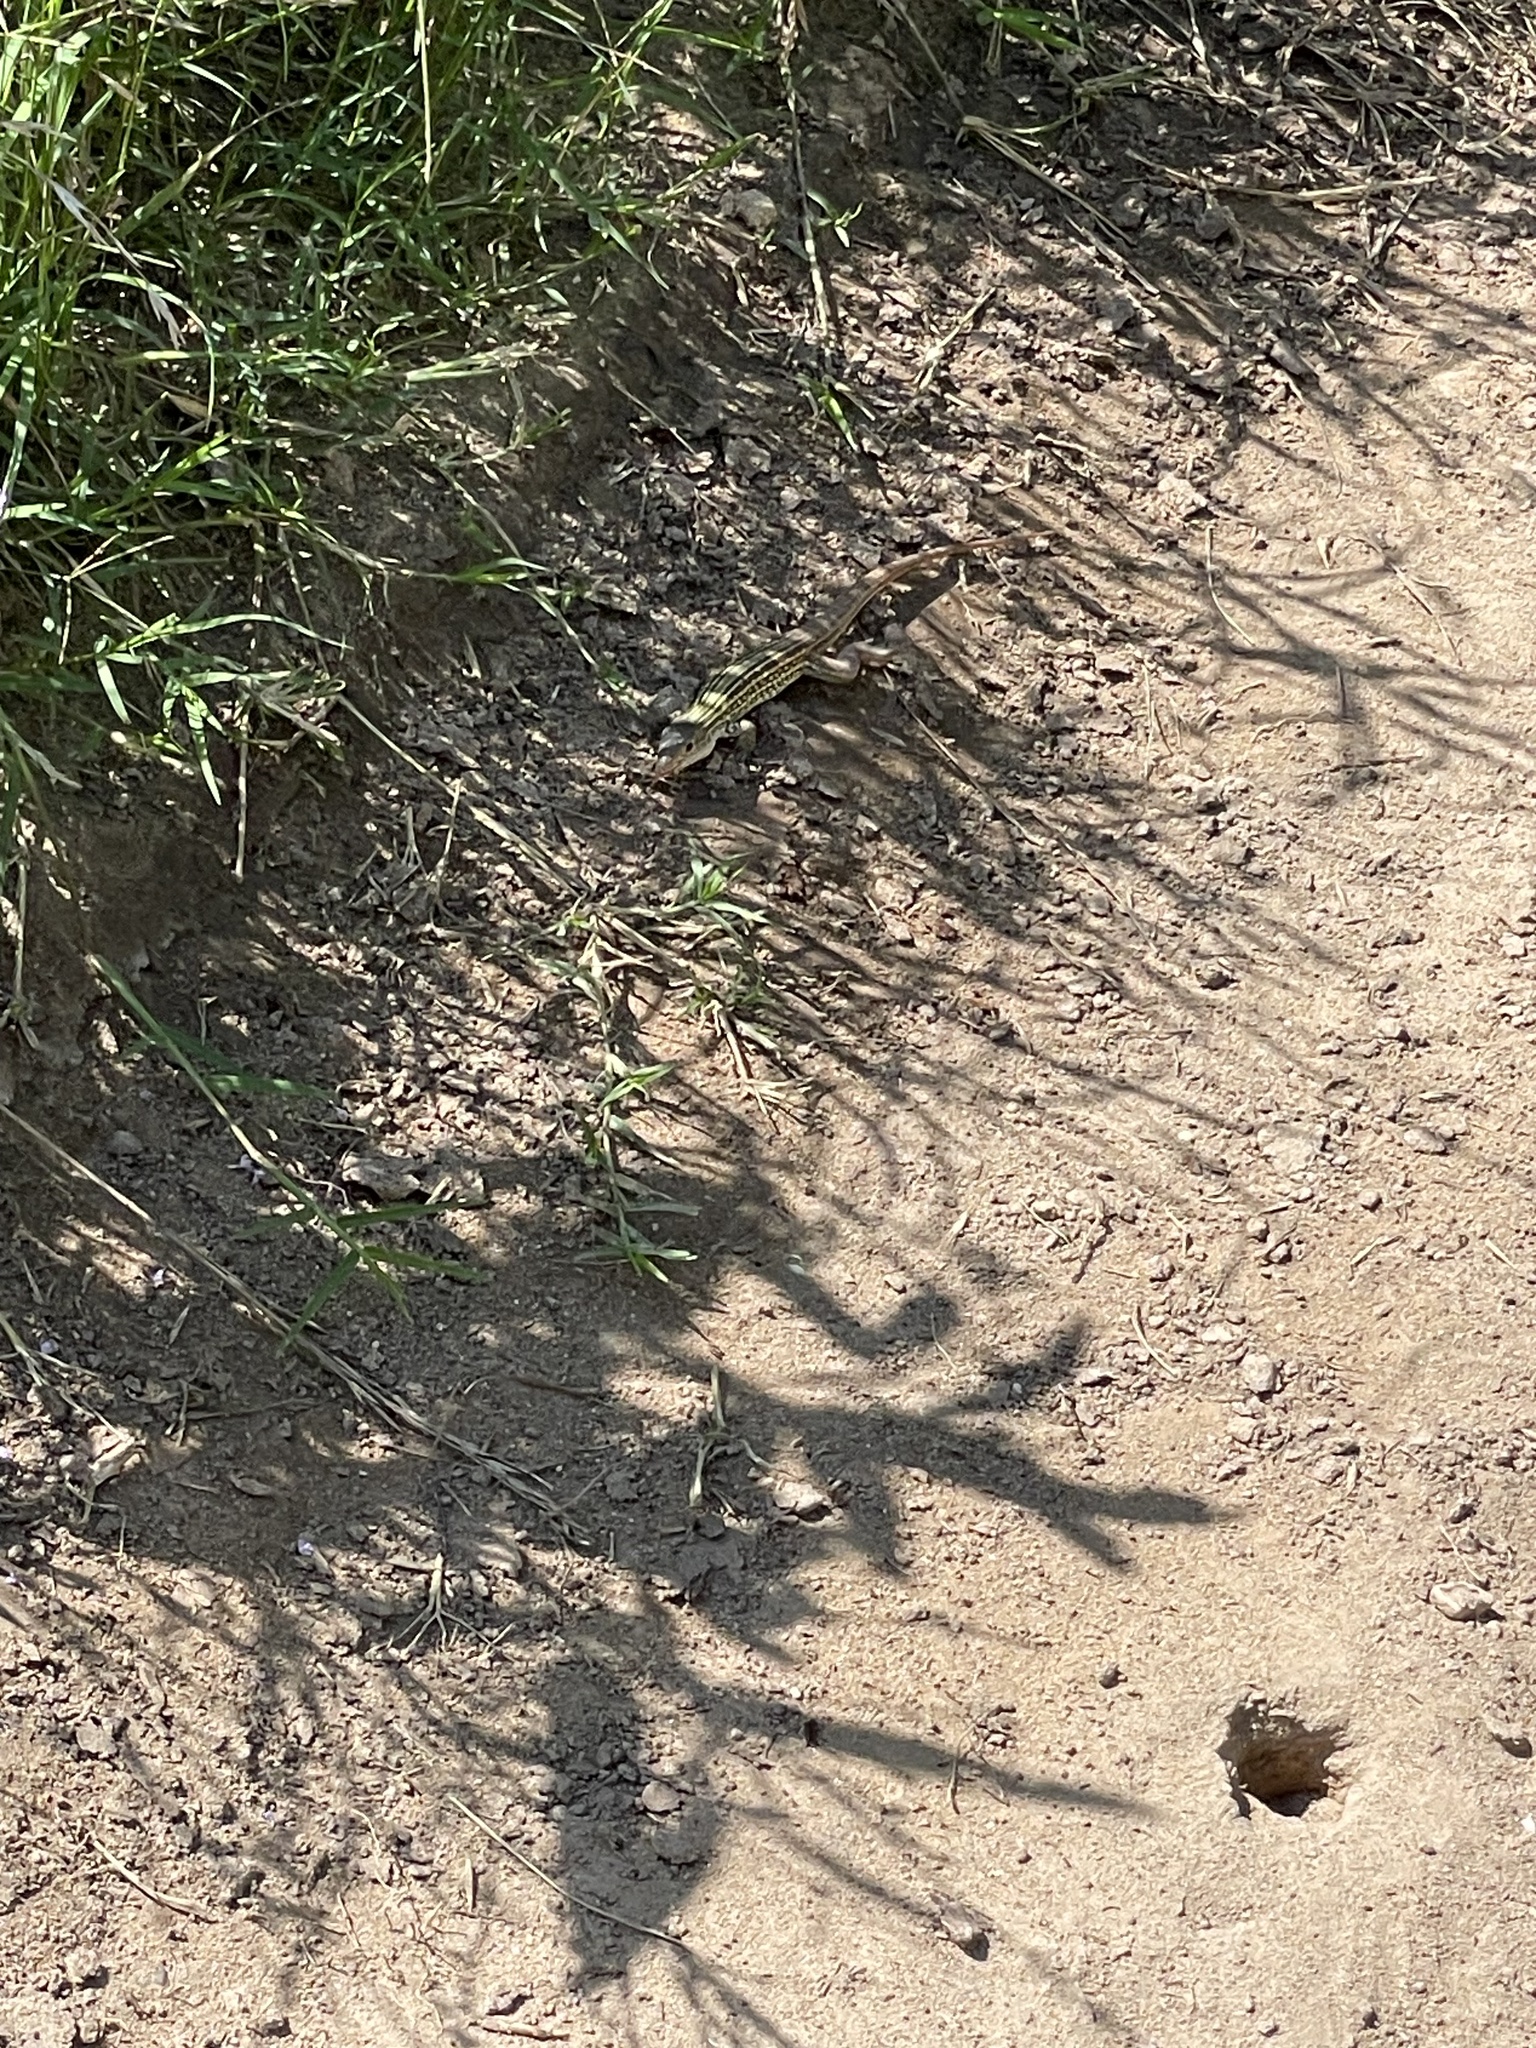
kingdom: Animalia
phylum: Chordata
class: Squamata
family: Teiidae
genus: Aspidoscelis
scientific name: Aspidoscelis gularis
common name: Eastern spotted whiptail
